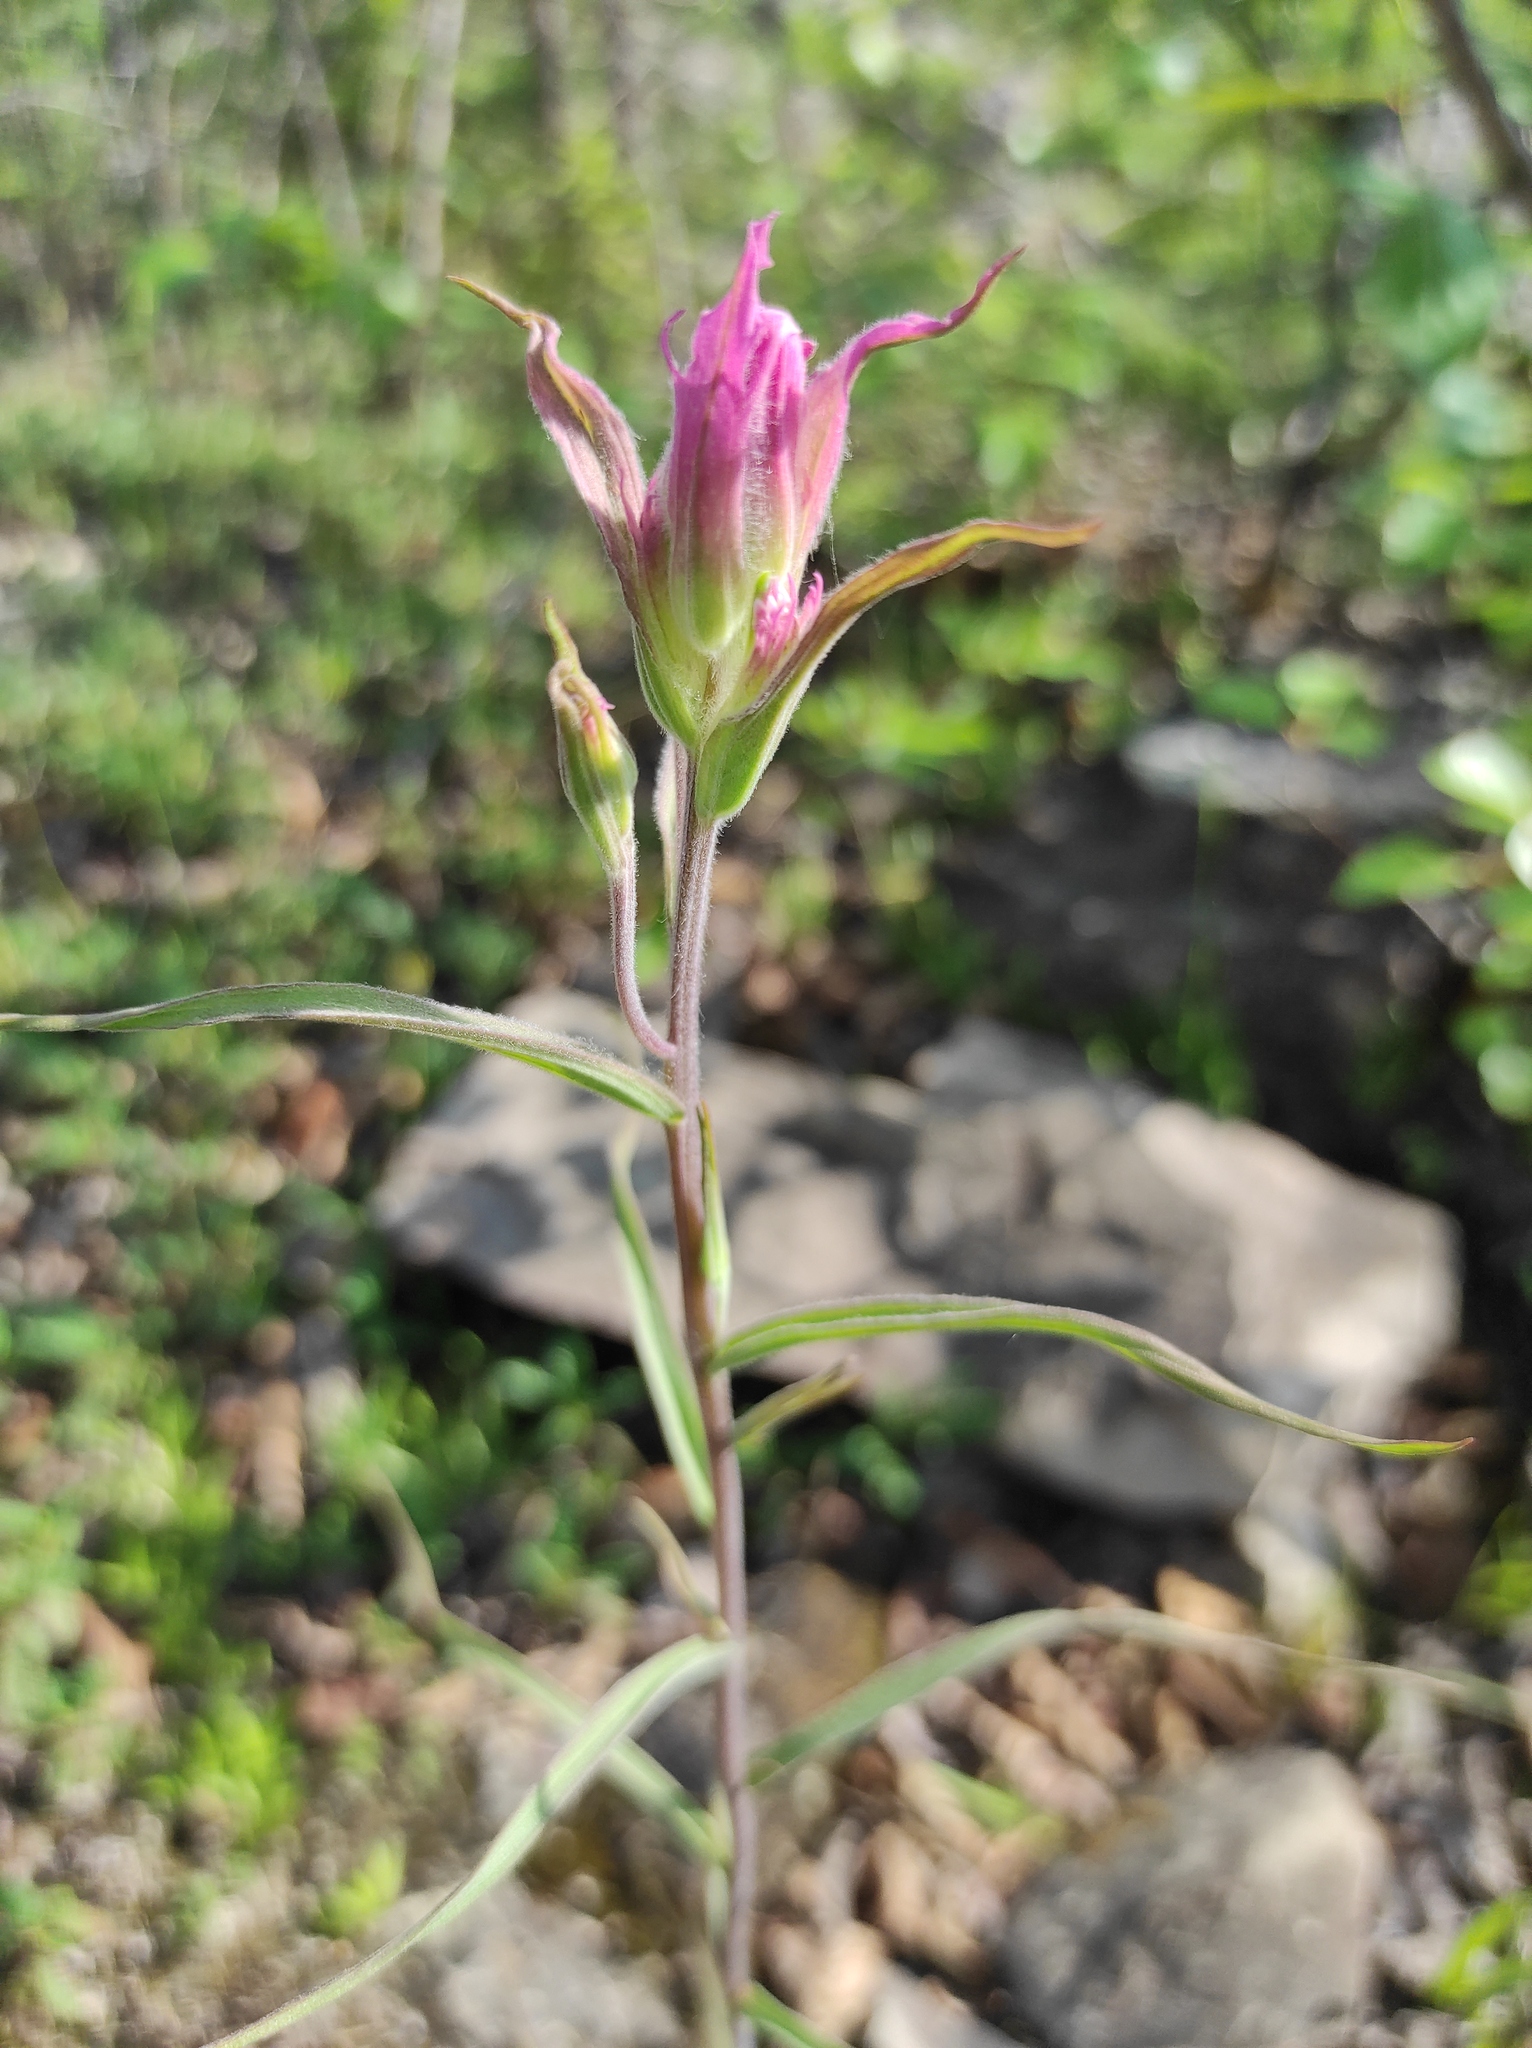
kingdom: Plantae
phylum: Tracheophyta
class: Magnoliopsida
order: Lamiales
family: Orobanchaceae
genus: Castilleja
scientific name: Castilleja rubra
